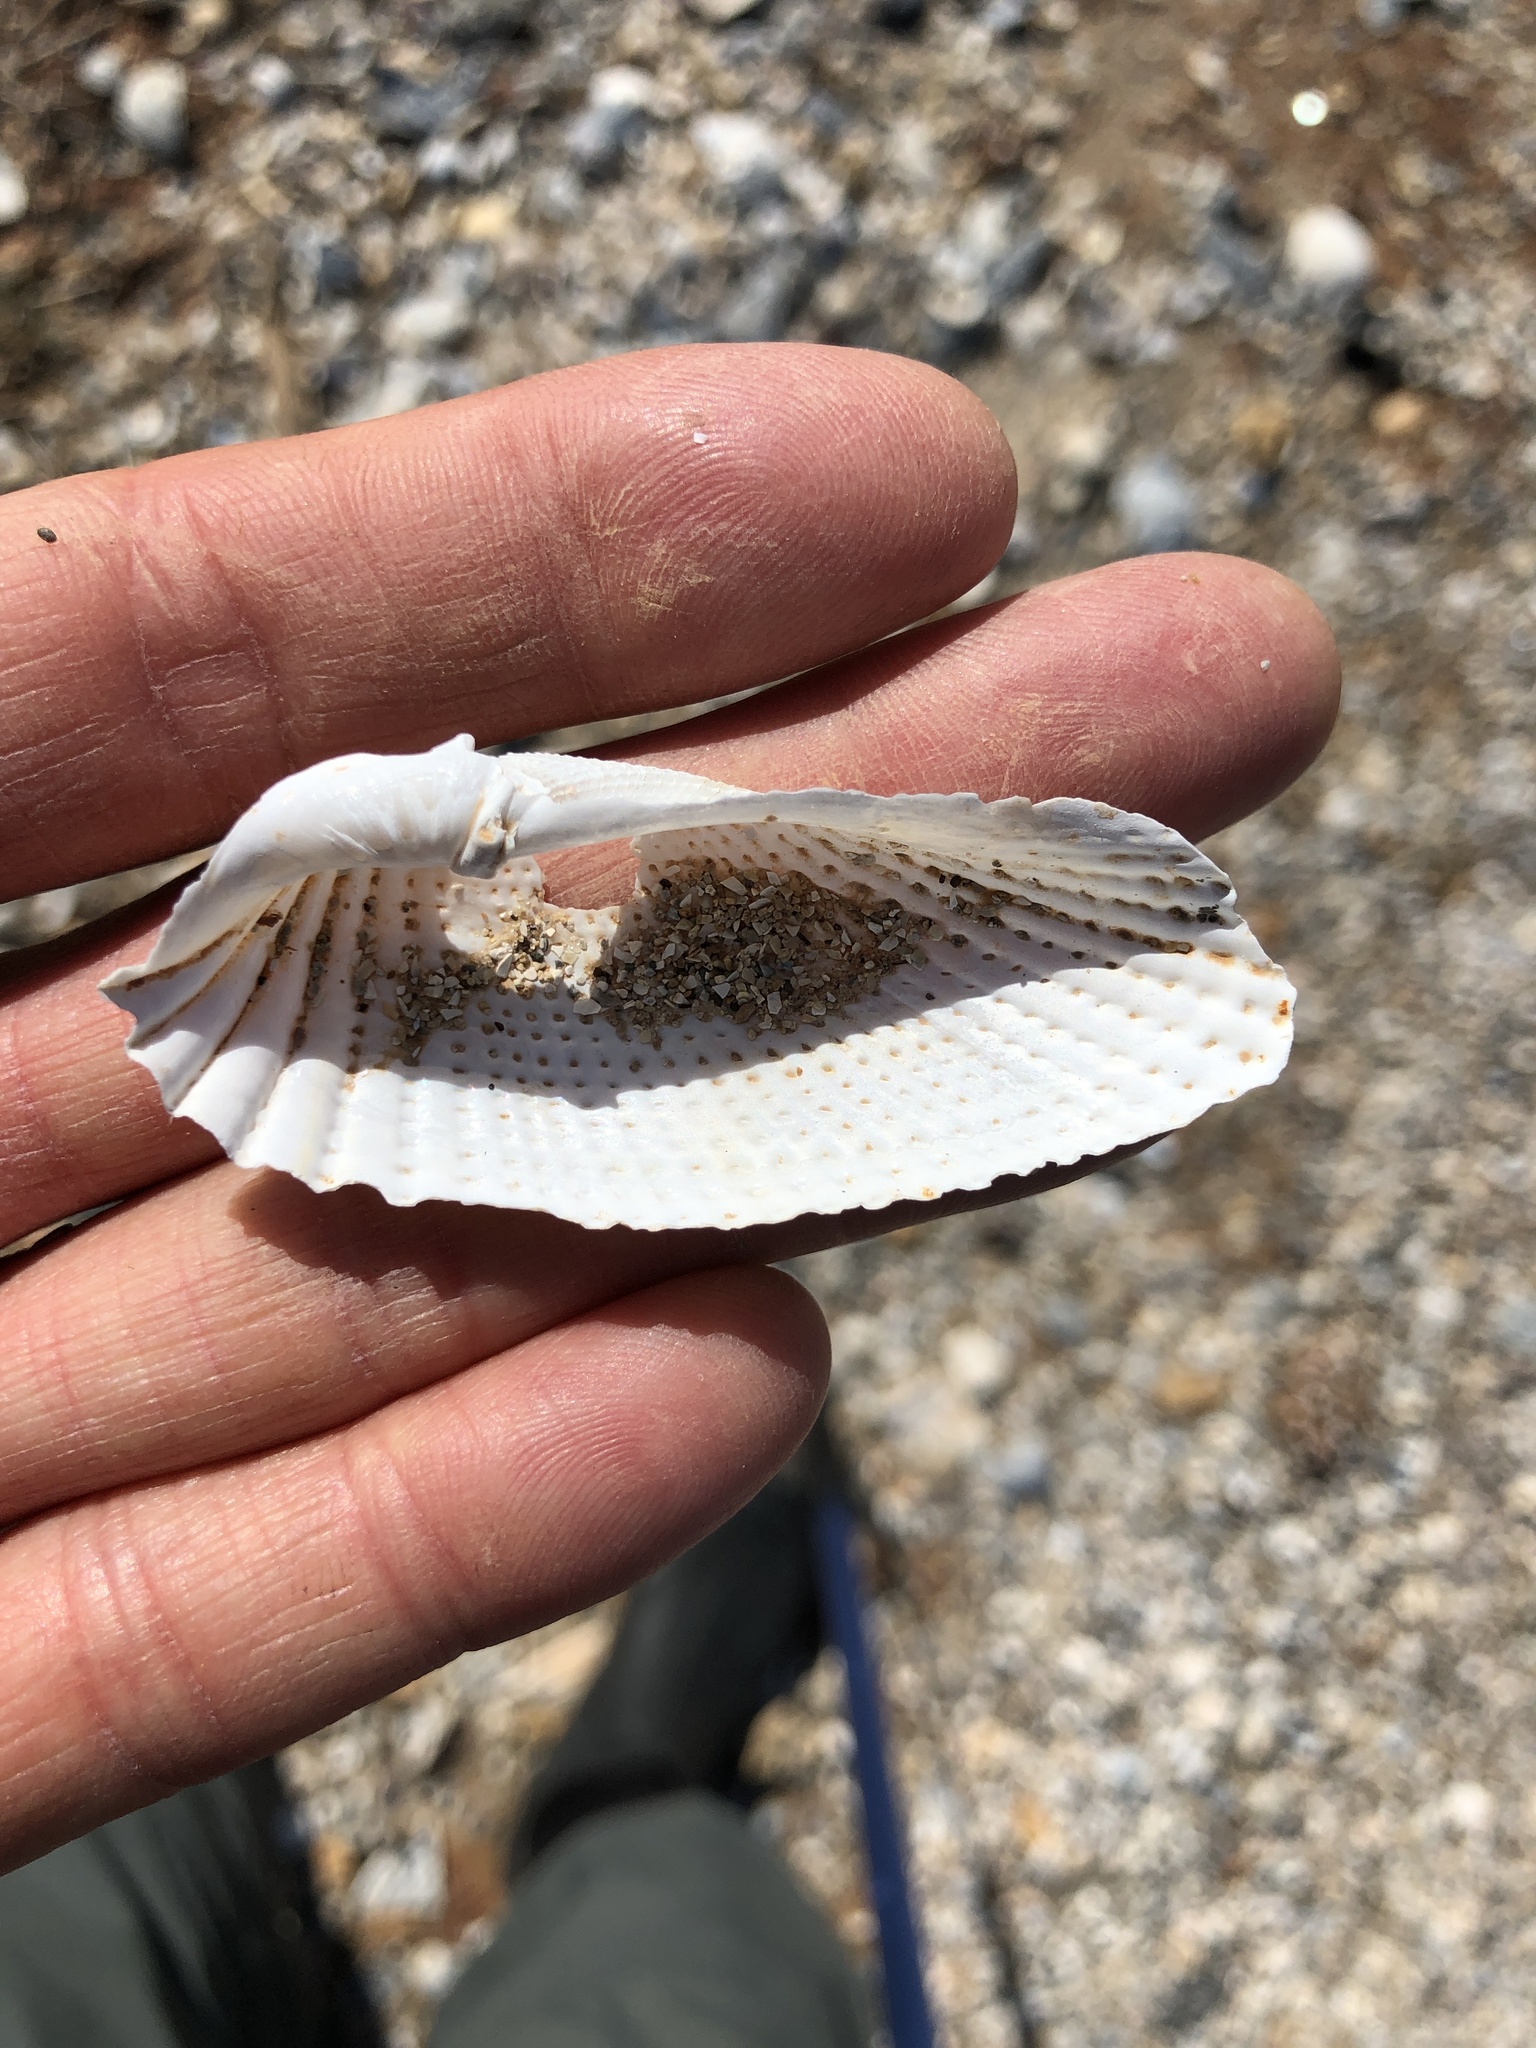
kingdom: Animalia
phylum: Mollusca
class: Bivalvia
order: Myida
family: Pholadidae
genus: Cyrtopleura
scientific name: Cyrtopleura costata
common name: Angel wing
